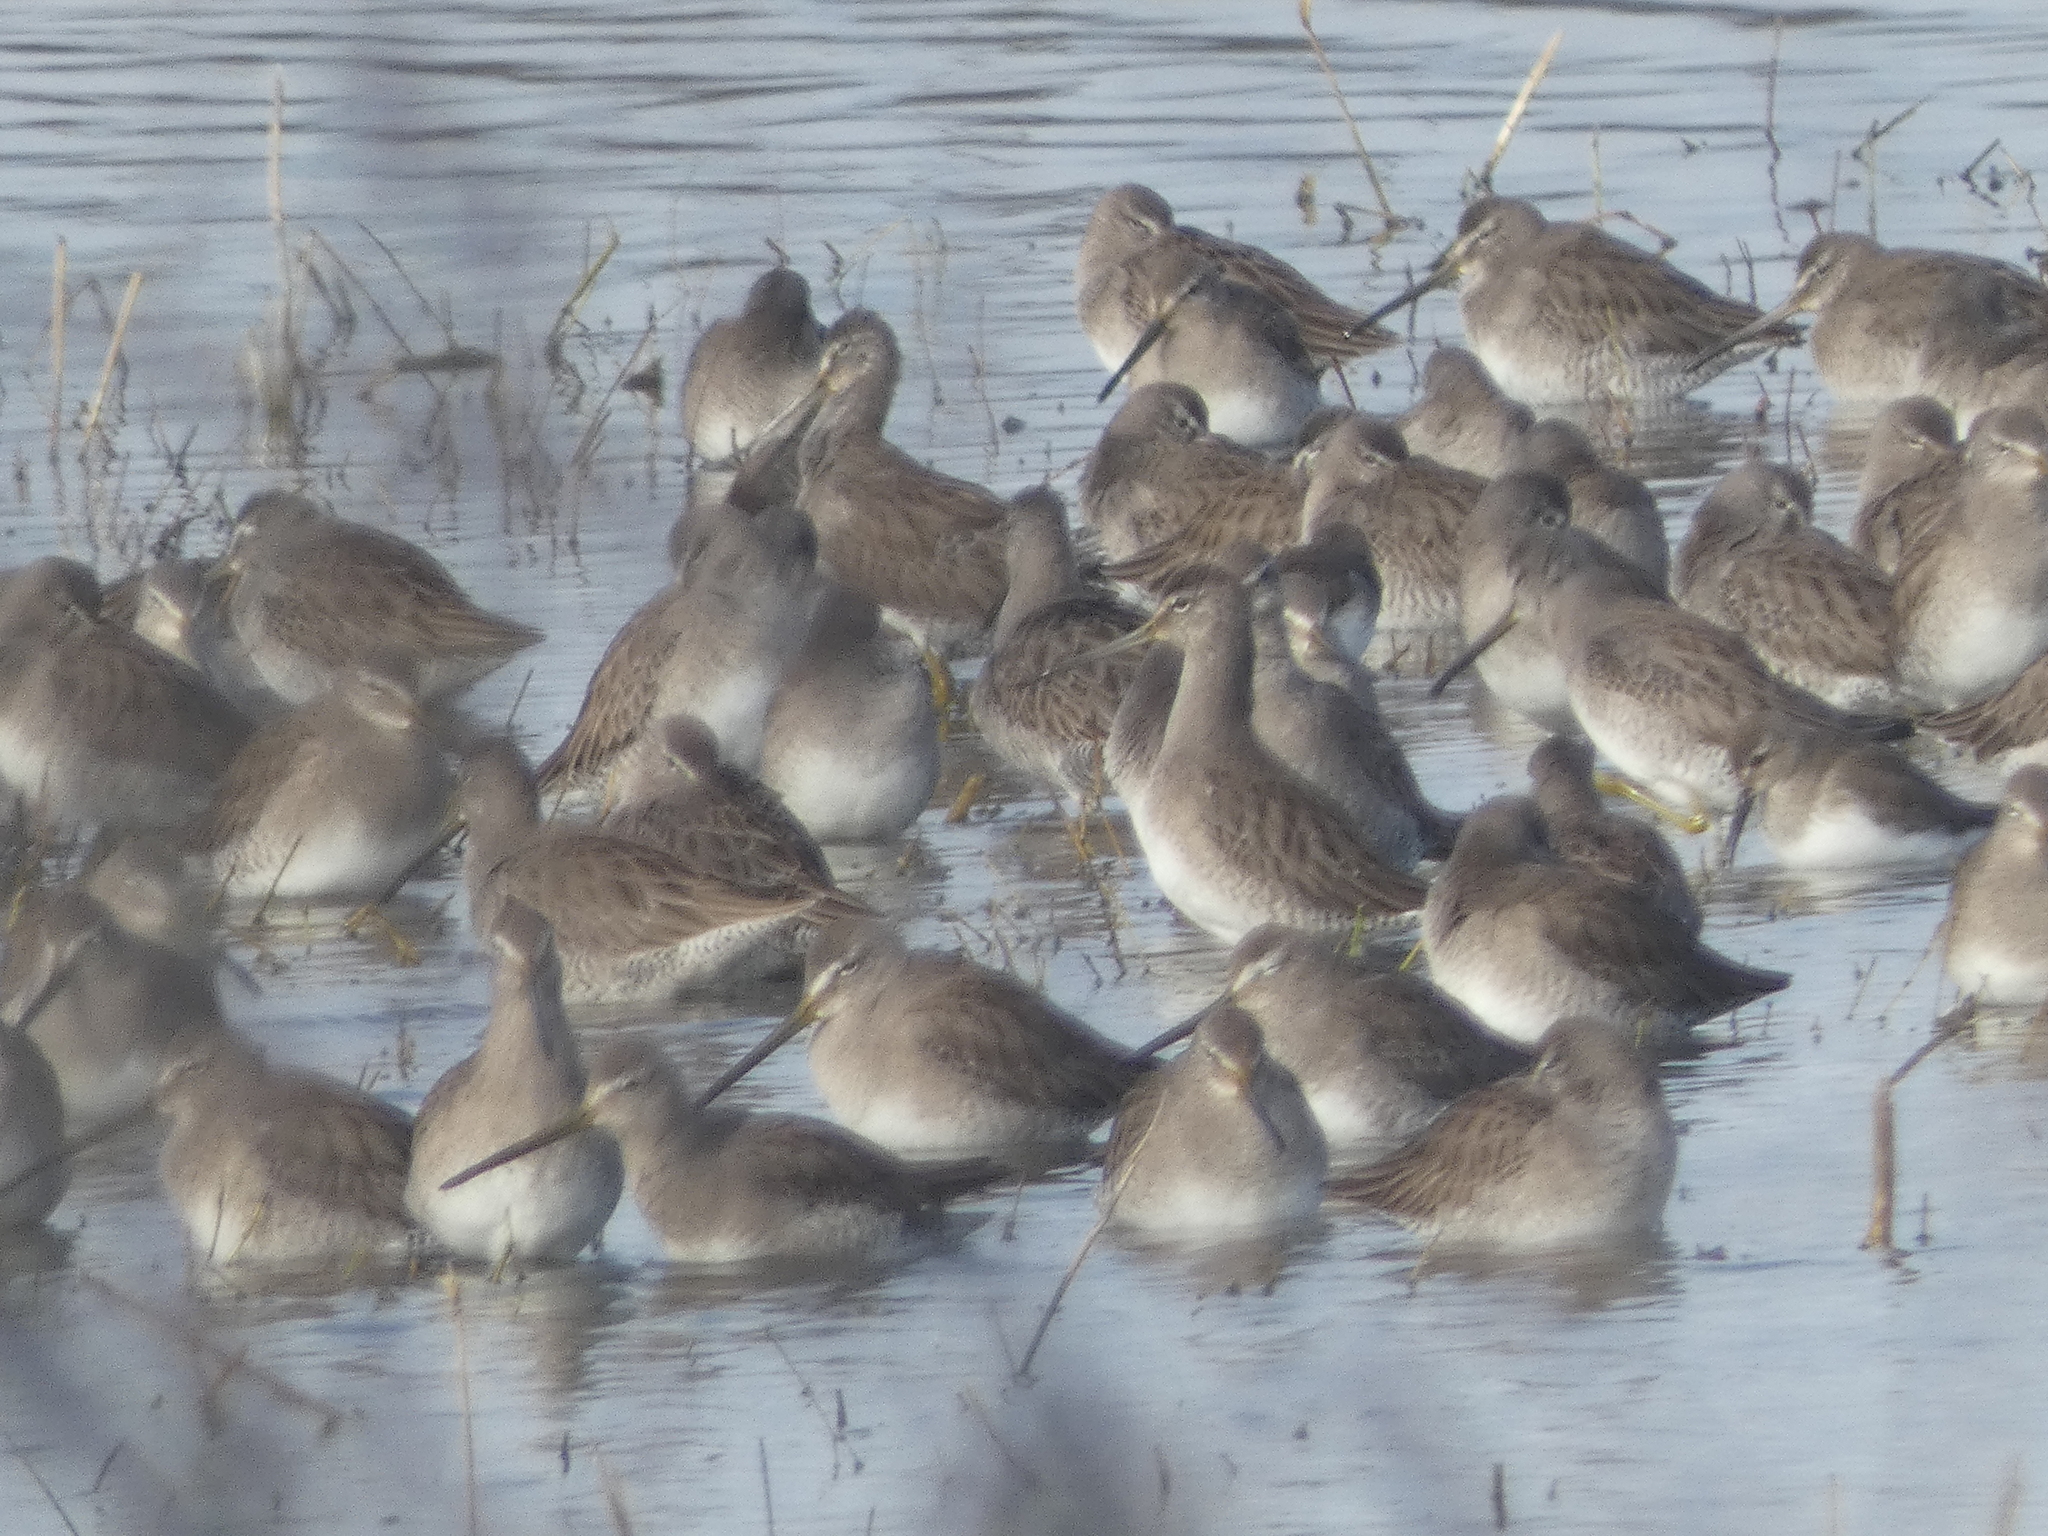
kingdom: Animalia
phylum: Chordata
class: Aves
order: Charadriiformes
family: Scolopacidae
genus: Limnodromus
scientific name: Limnodromus scolopaceus
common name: Long-billed dowitcher
